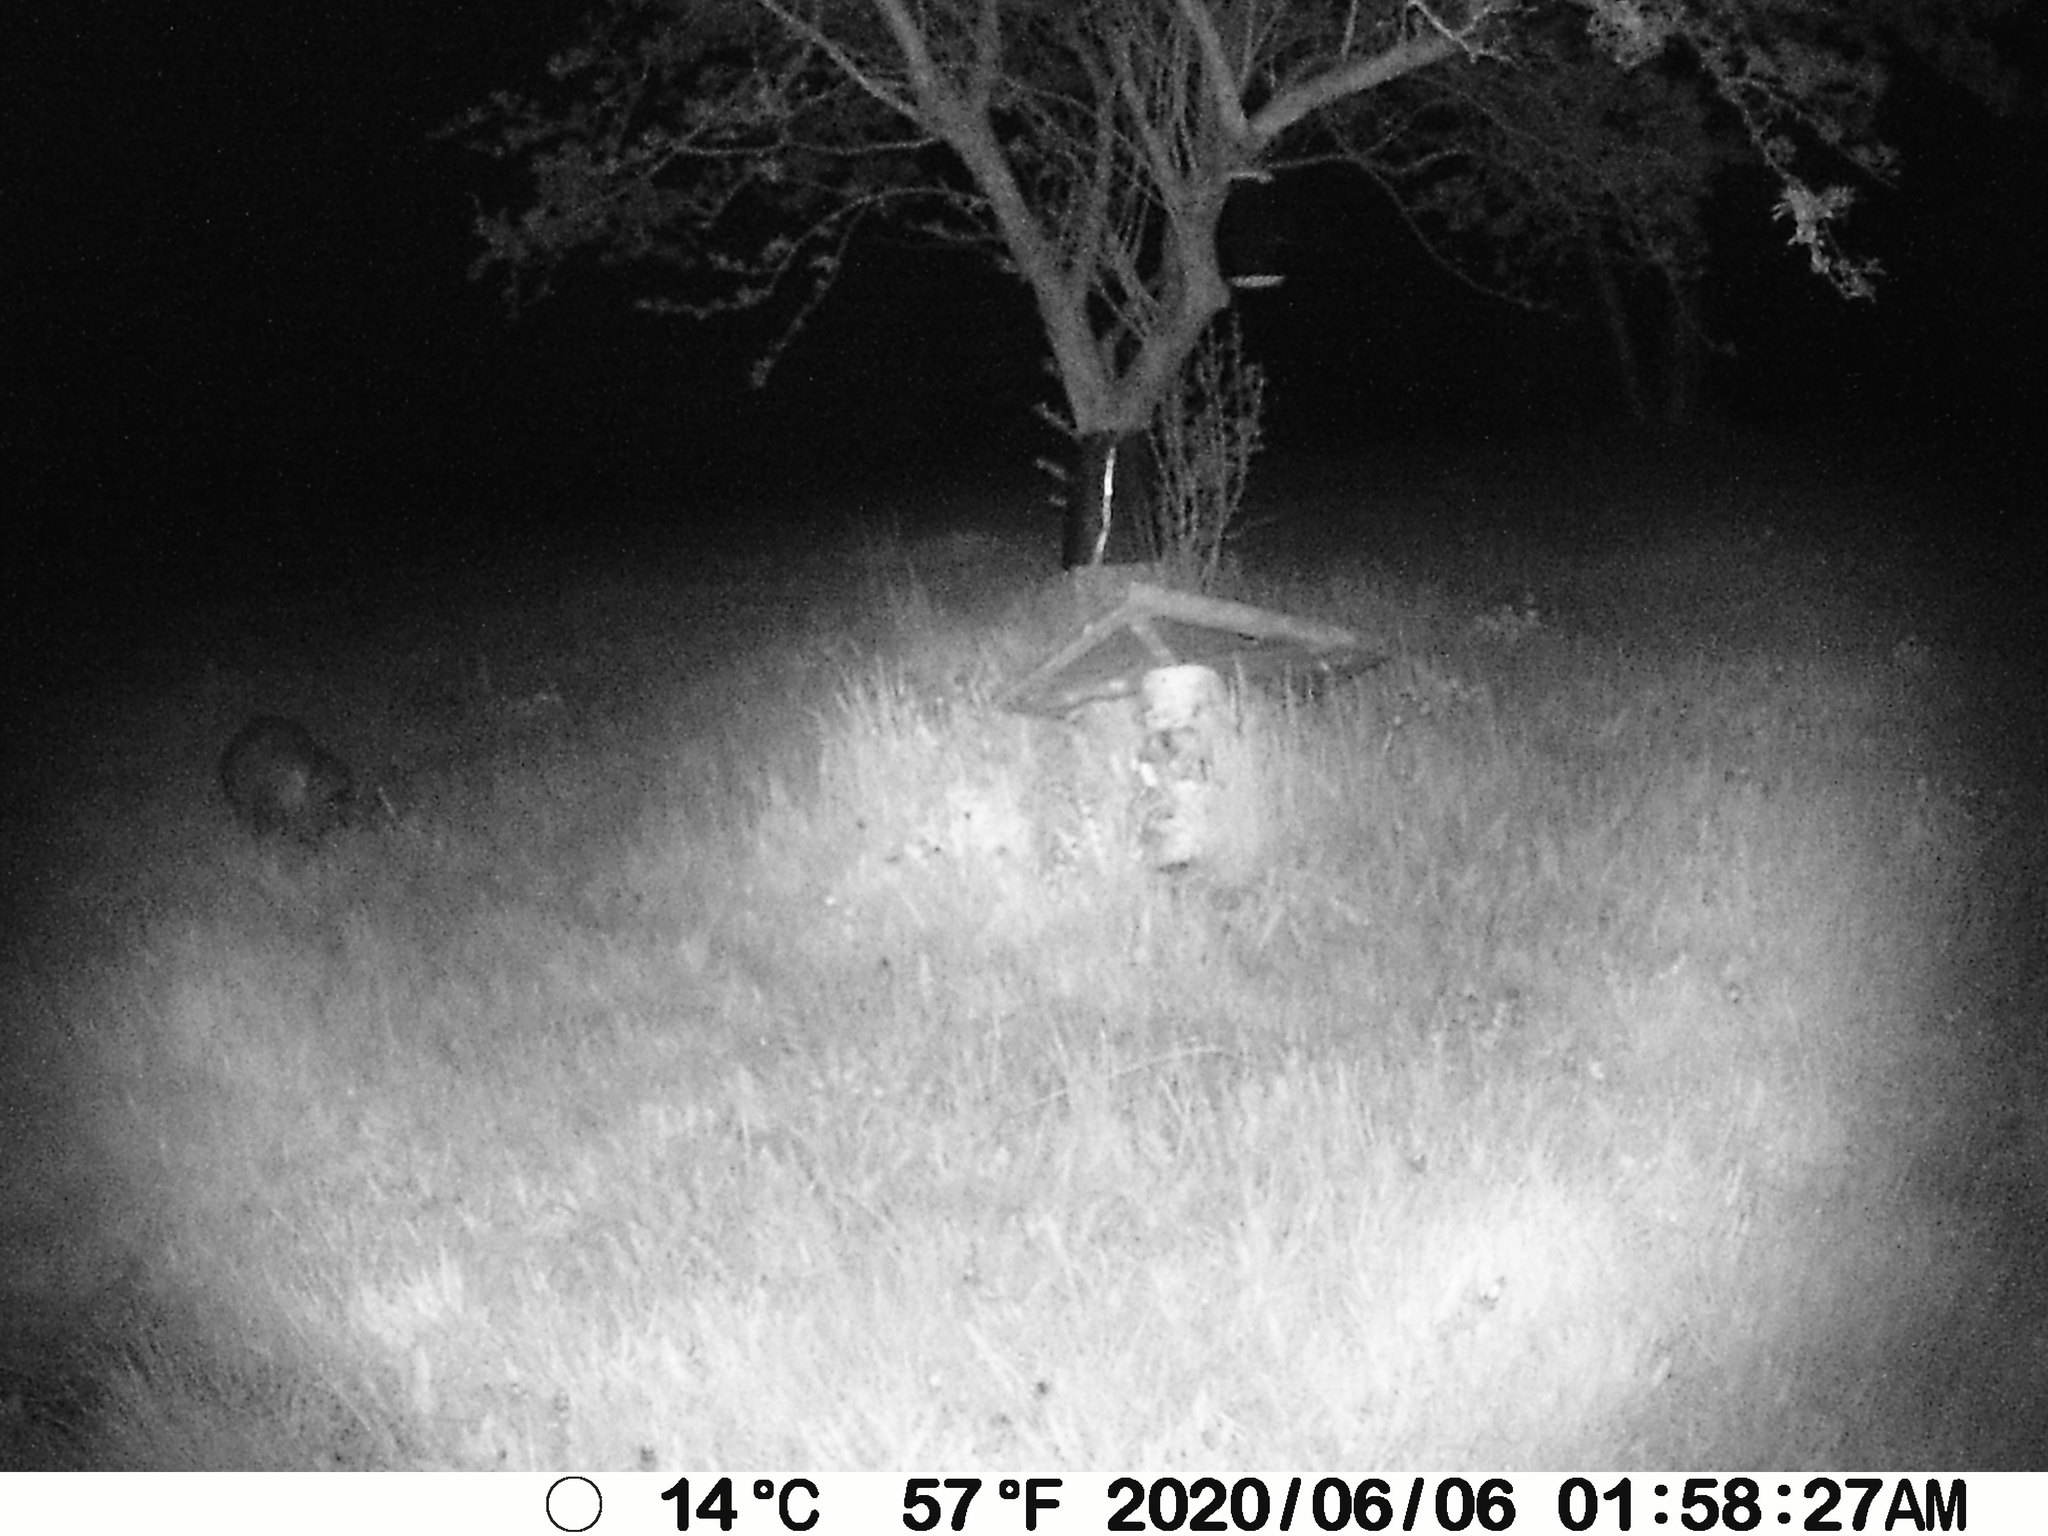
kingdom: Animalia
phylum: Chordata
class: Mammalia
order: Carnivora
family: Procyonidae
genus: Procyon
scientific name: Procyon lotor
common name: Raccoon
